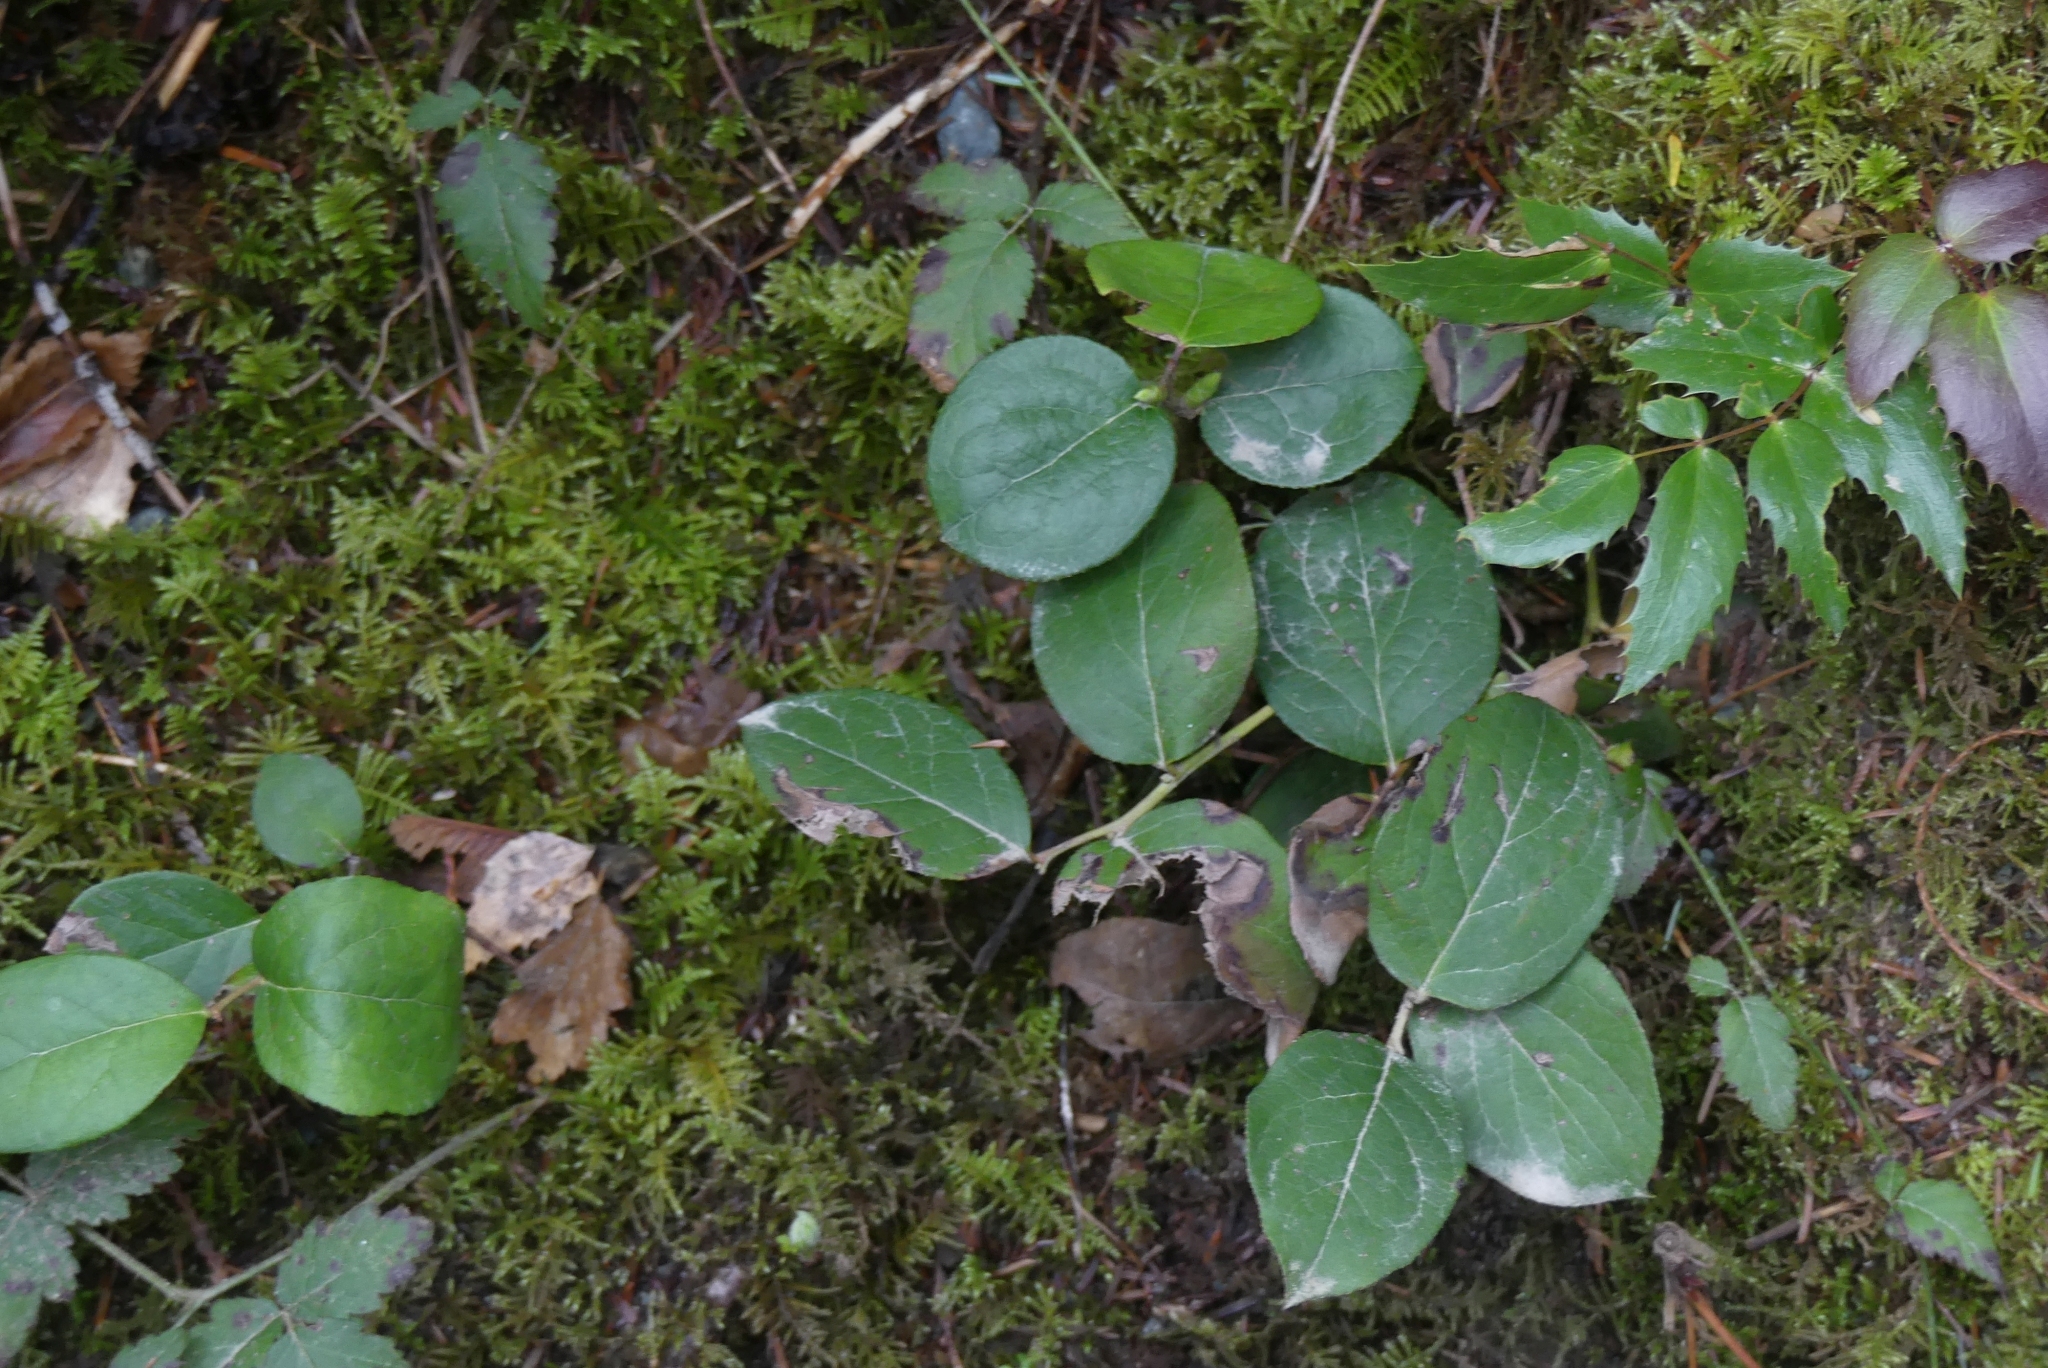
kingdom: Plantae
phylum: Tracheophyta
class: Magnoliopsida
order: Ericales
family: Ericaceae
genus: Gaultheria
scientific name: Gaultheria shallon
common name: Shallon
